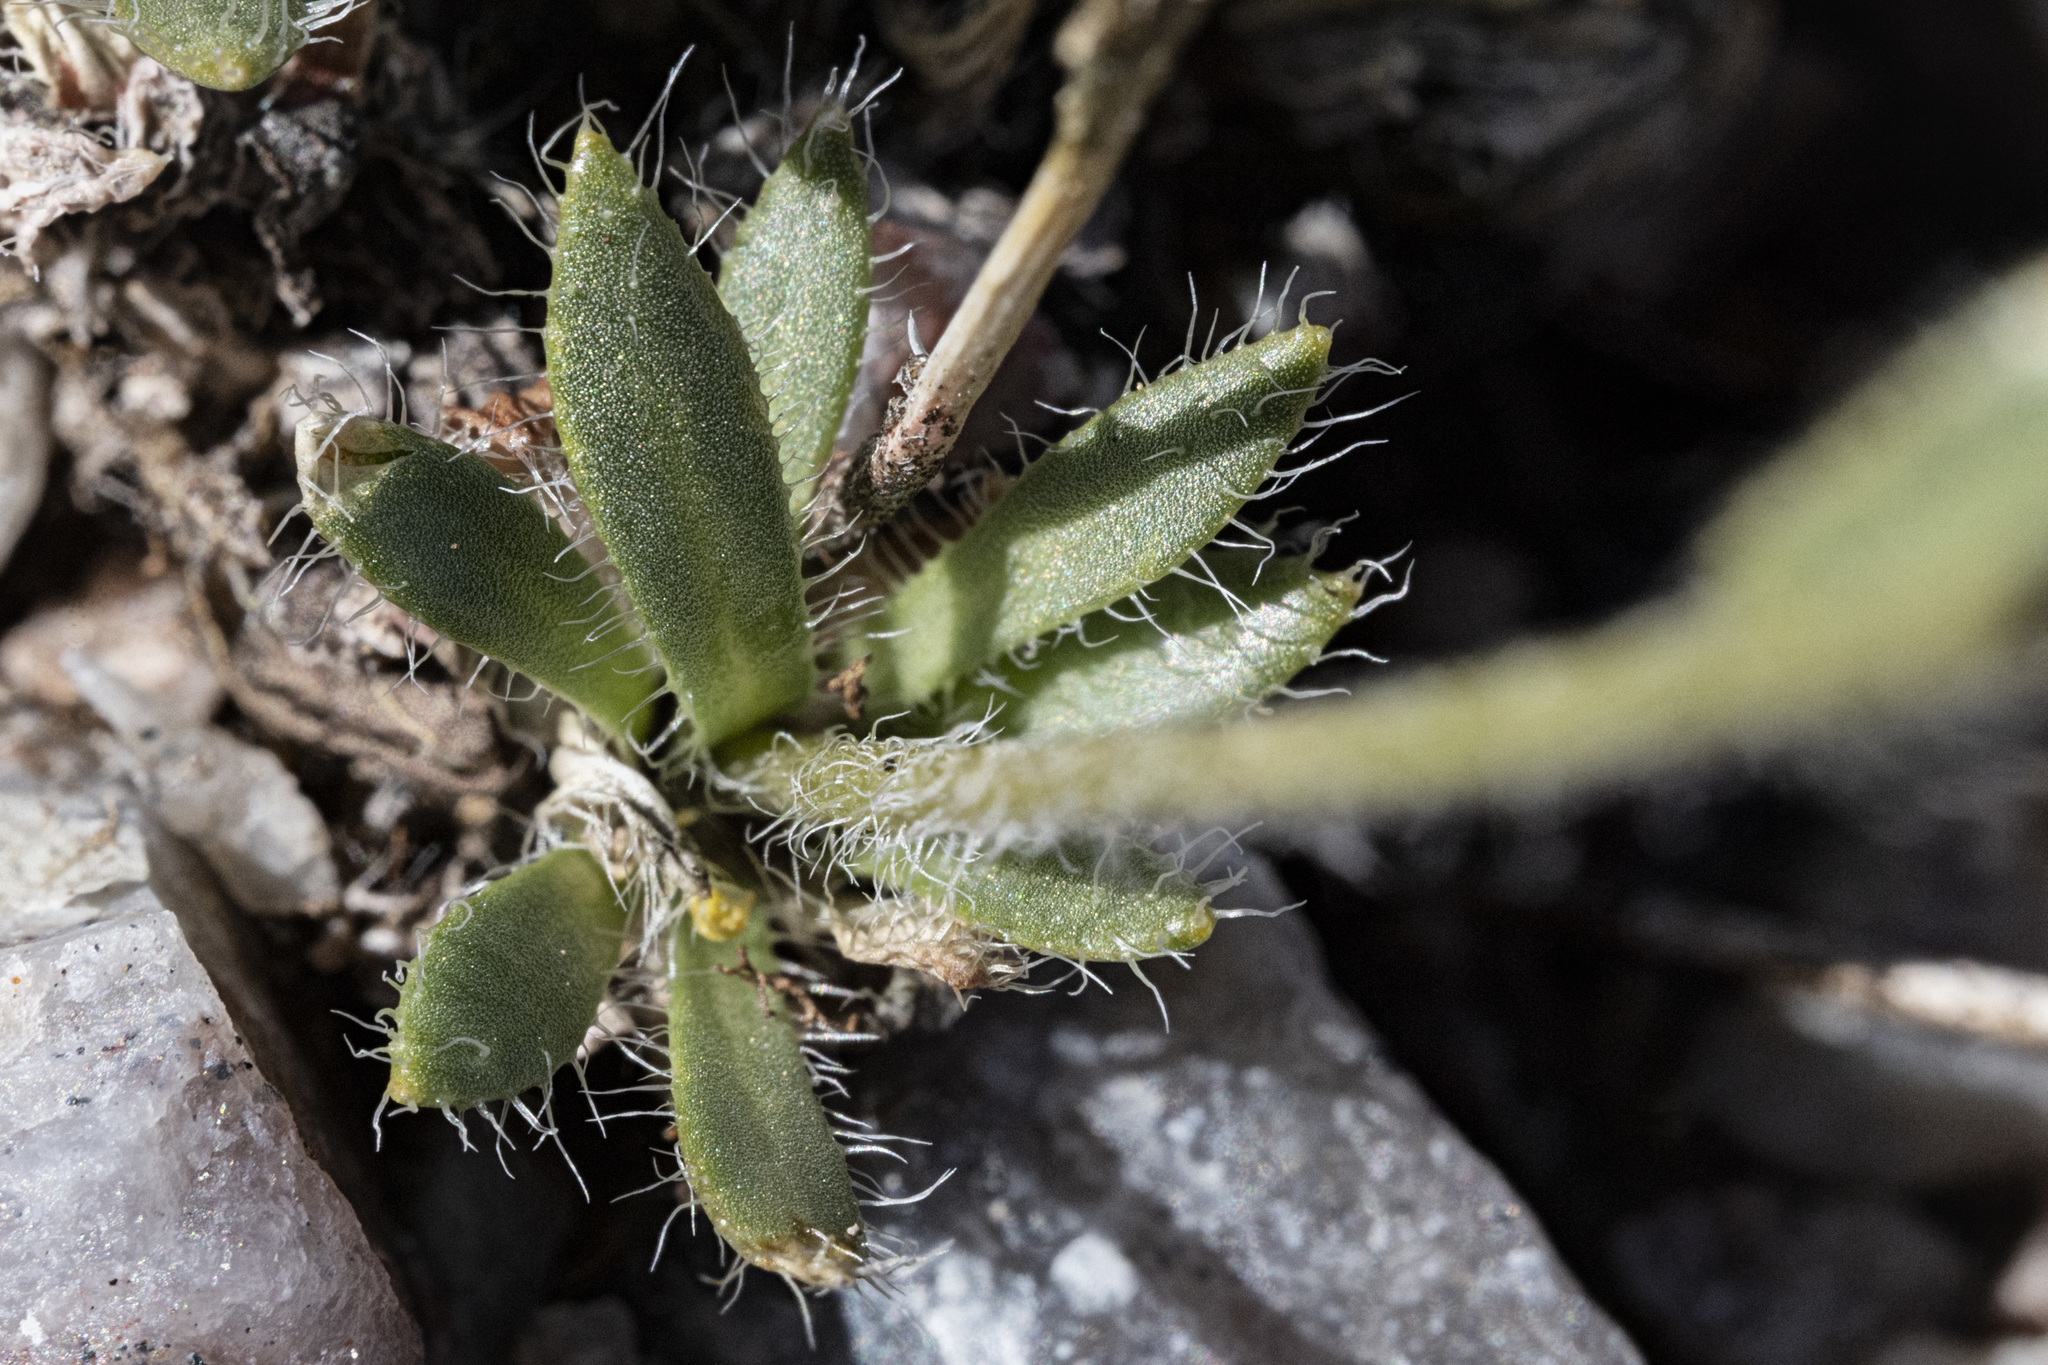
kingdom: Plantae
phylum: Tracheophyta
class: Magnoliopsida
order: Brassicales
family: Brassicaceae
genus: Draba
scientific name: Draba heilii
